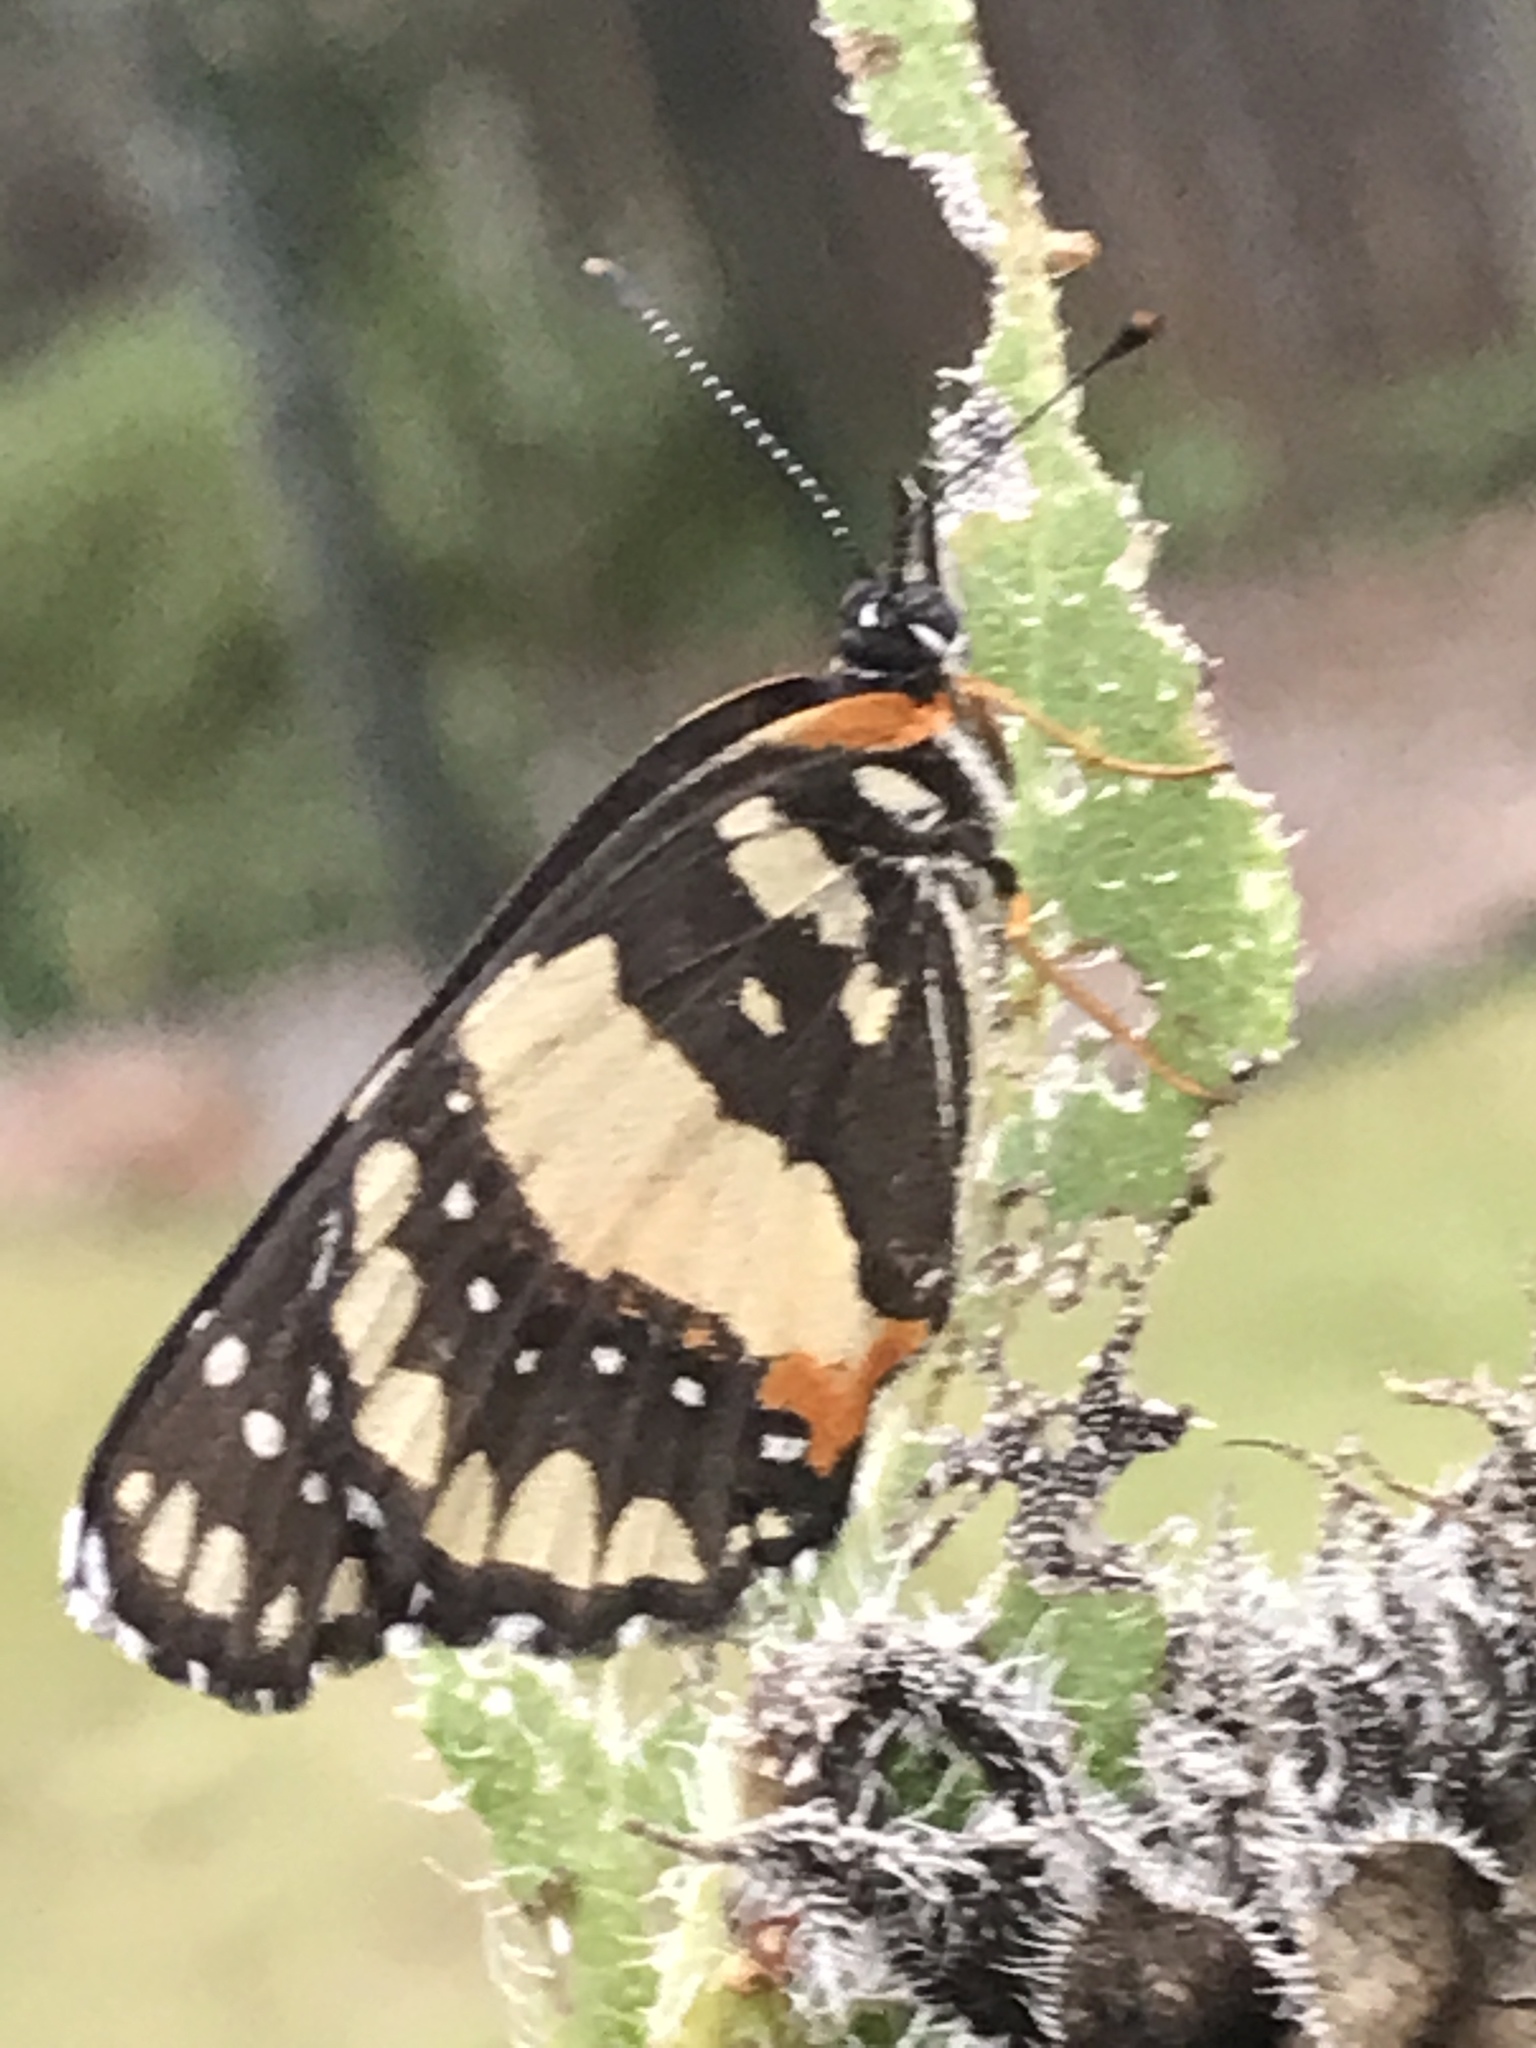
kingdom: Animalia
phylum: Arthropoda
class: Insecta
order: Lepidoptera
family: Nymphalidae
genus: Chlosyne
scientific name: Chlosyne lacinia
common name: Bordered patch
